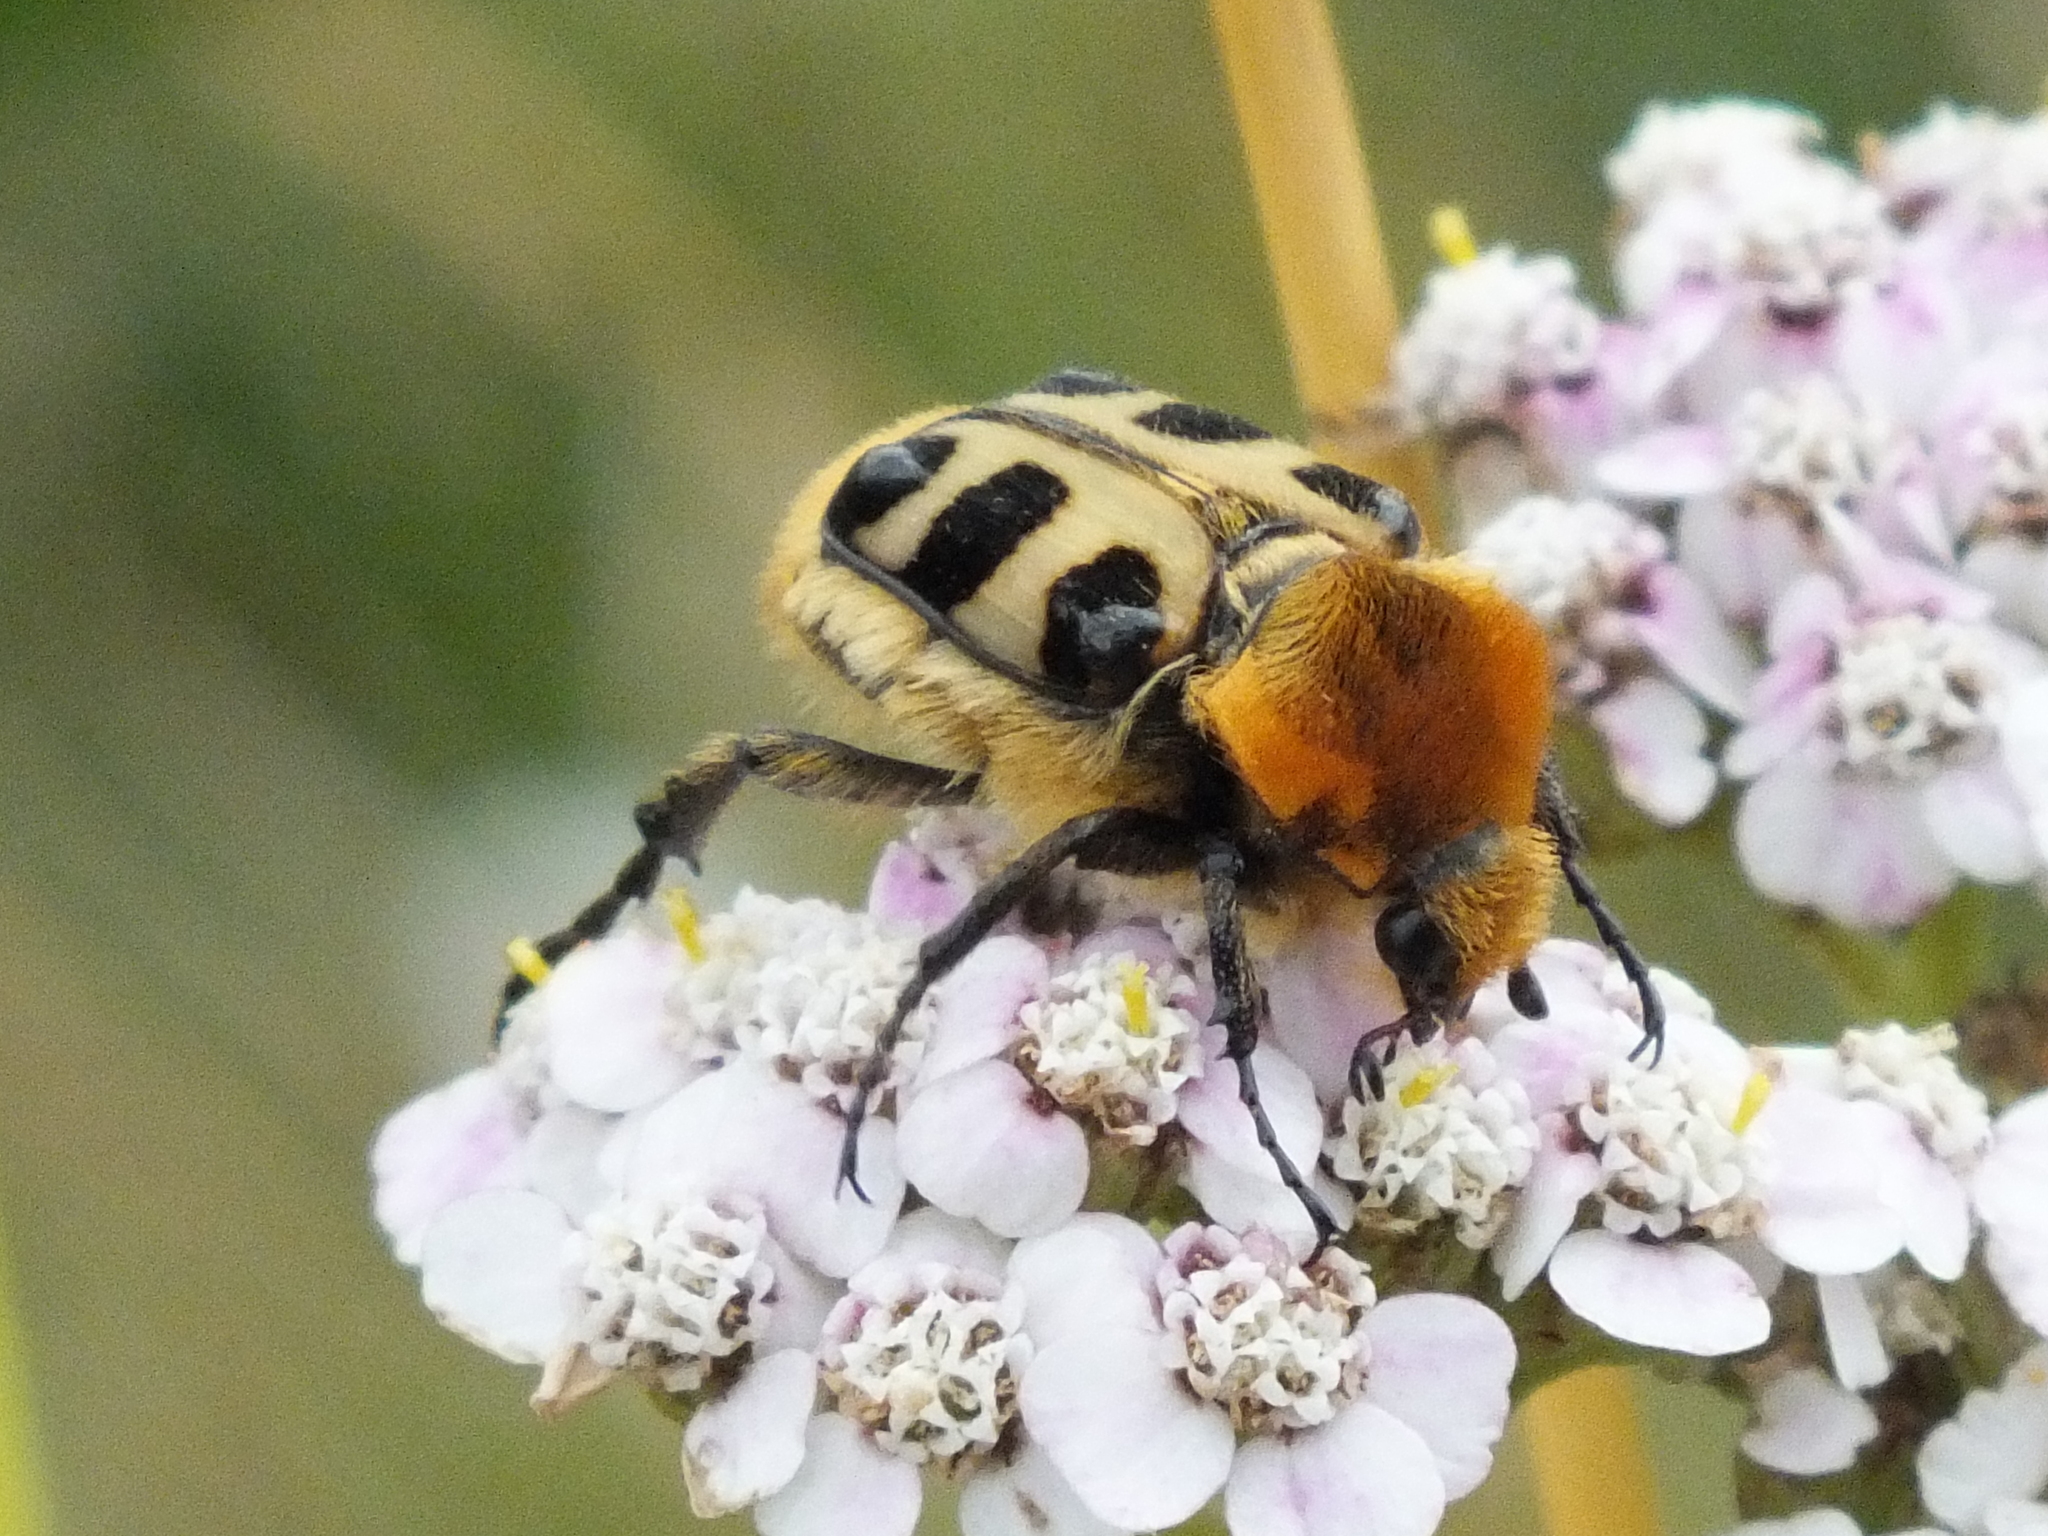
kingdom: Animalia
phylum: Arthropoda
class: Insecta
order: Coleoptera
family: Scarabaeidae
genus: Trichius
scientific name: Trichius gallicus
